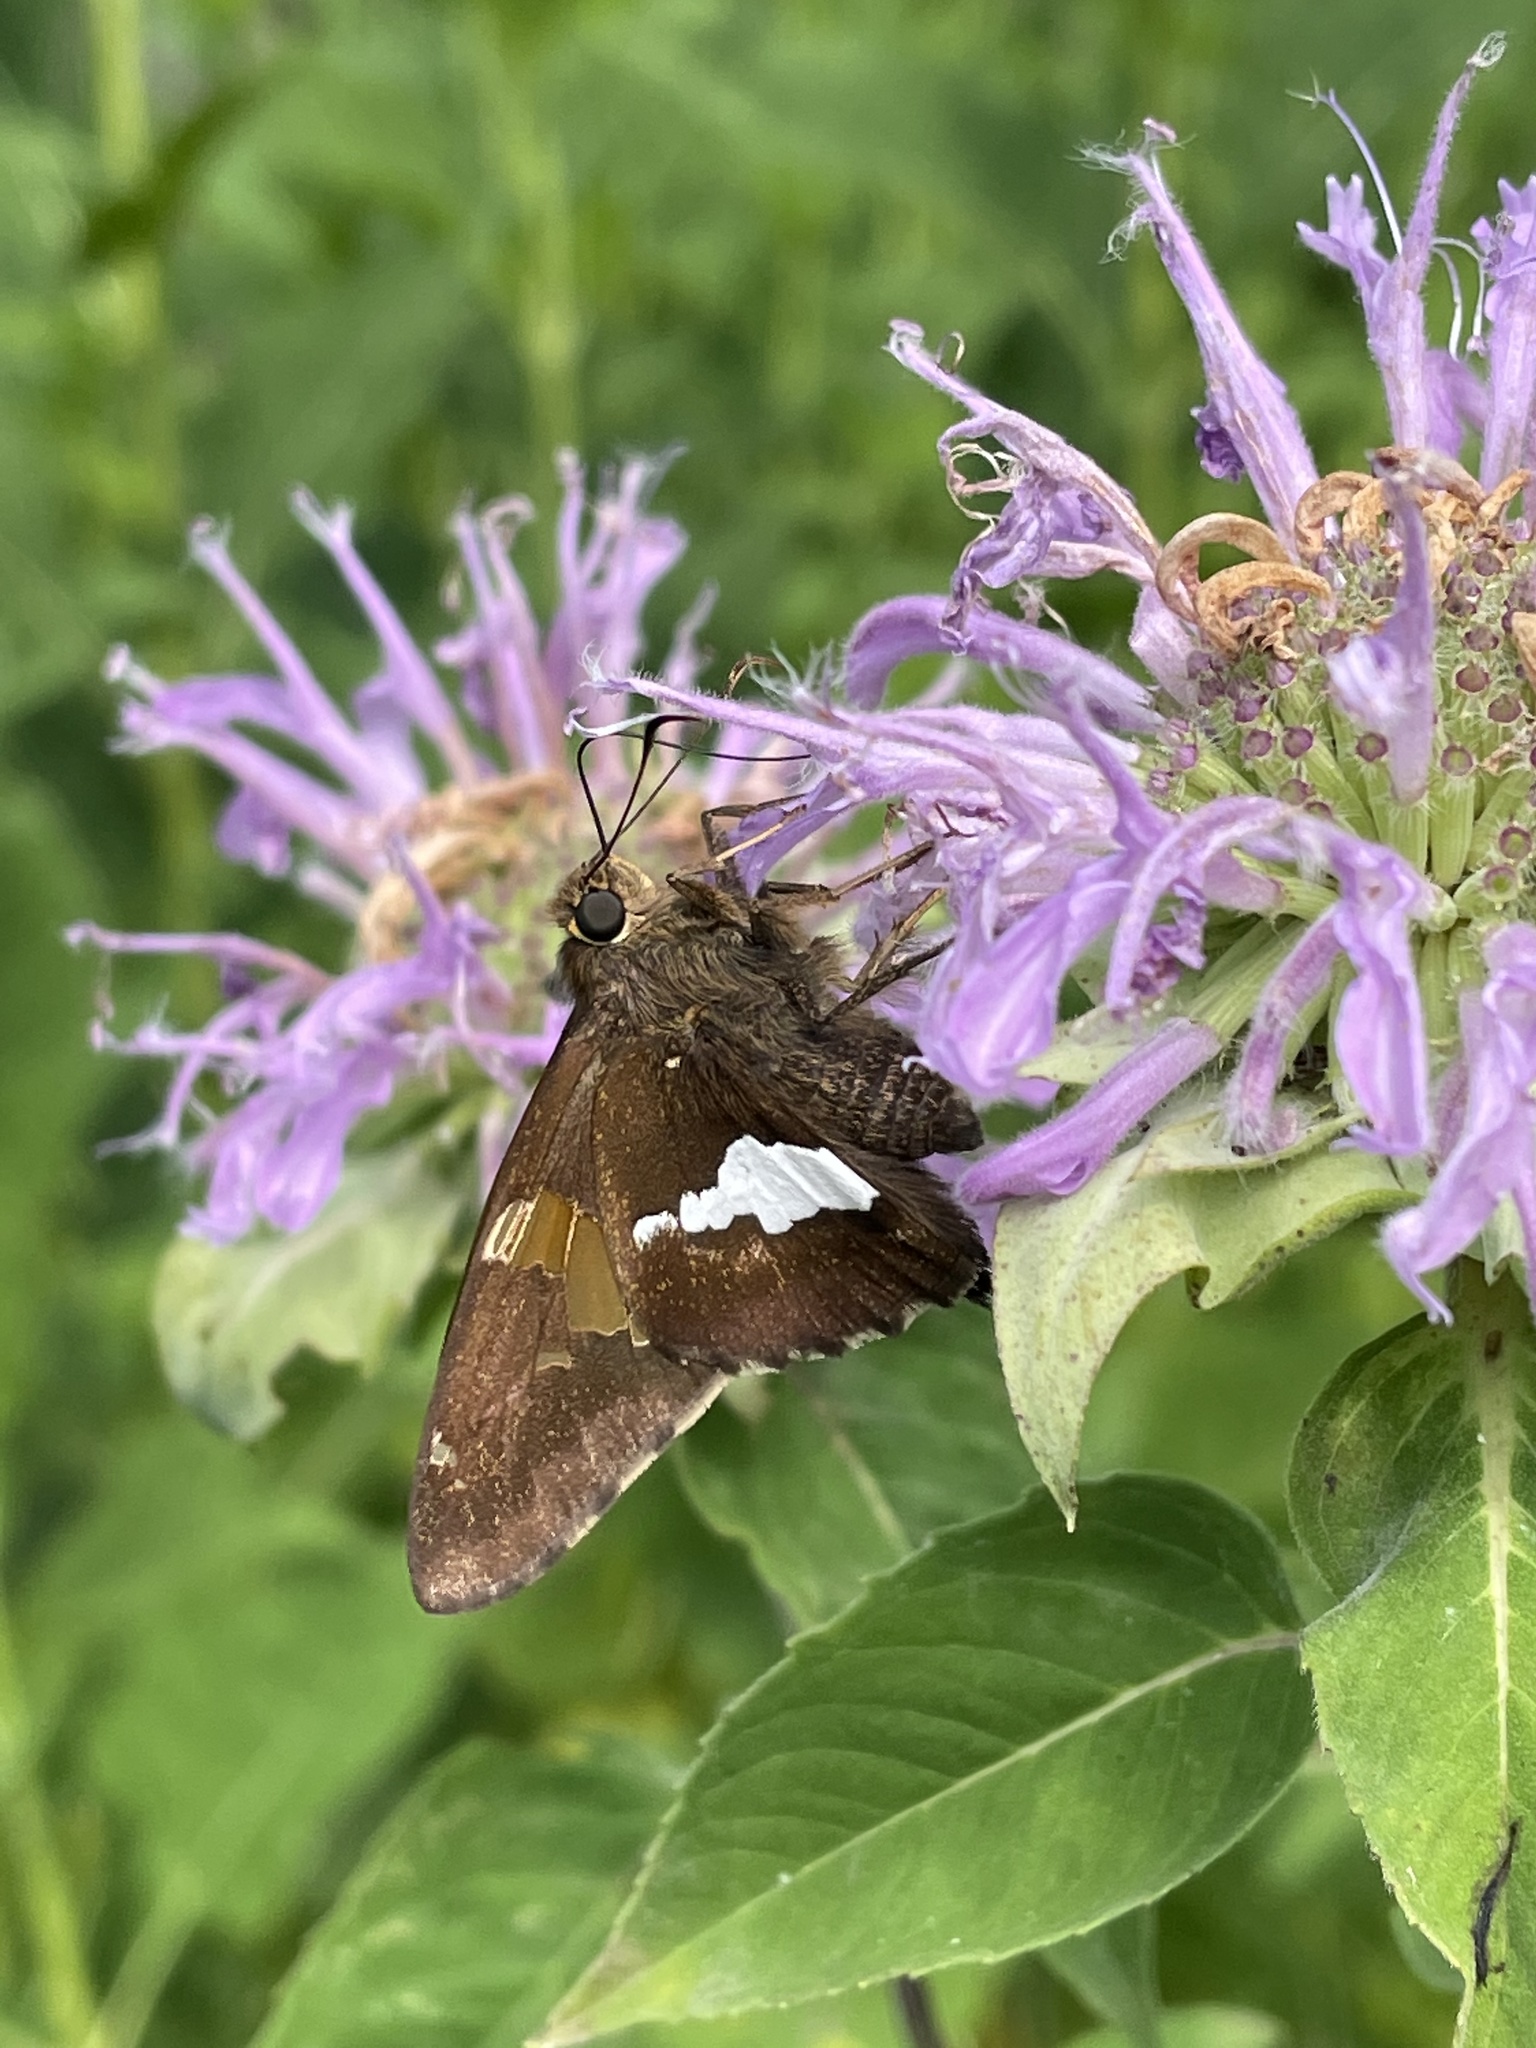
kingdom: Animalia
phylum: Arthropoda
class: Insecta
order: Lepidoptera
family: Hesperiidae
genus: Epargyreus
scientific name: Epargyreus clarus
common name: Silver-spotted skipper
